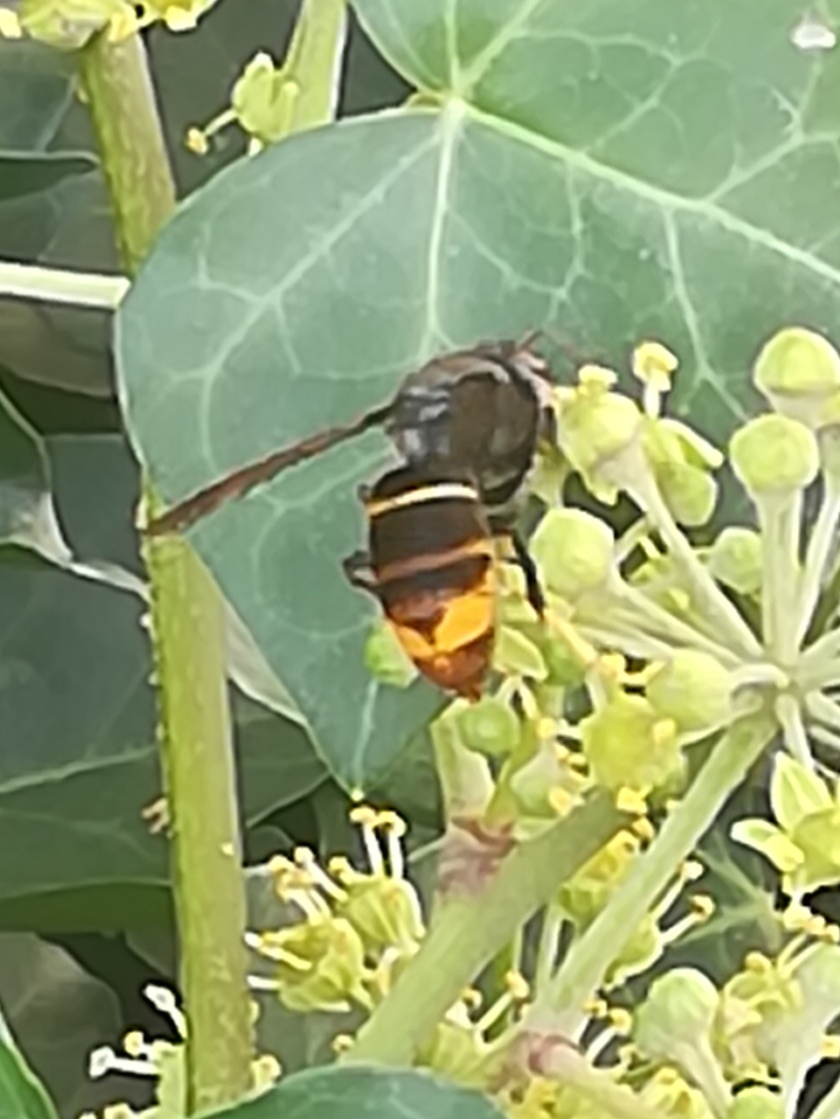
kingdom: Animalia
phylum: Arthropoda
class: Insecta
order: Hymenoptera
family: Vespidae
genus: Vespa
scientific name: Vespa velutina
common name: Asian hornet
